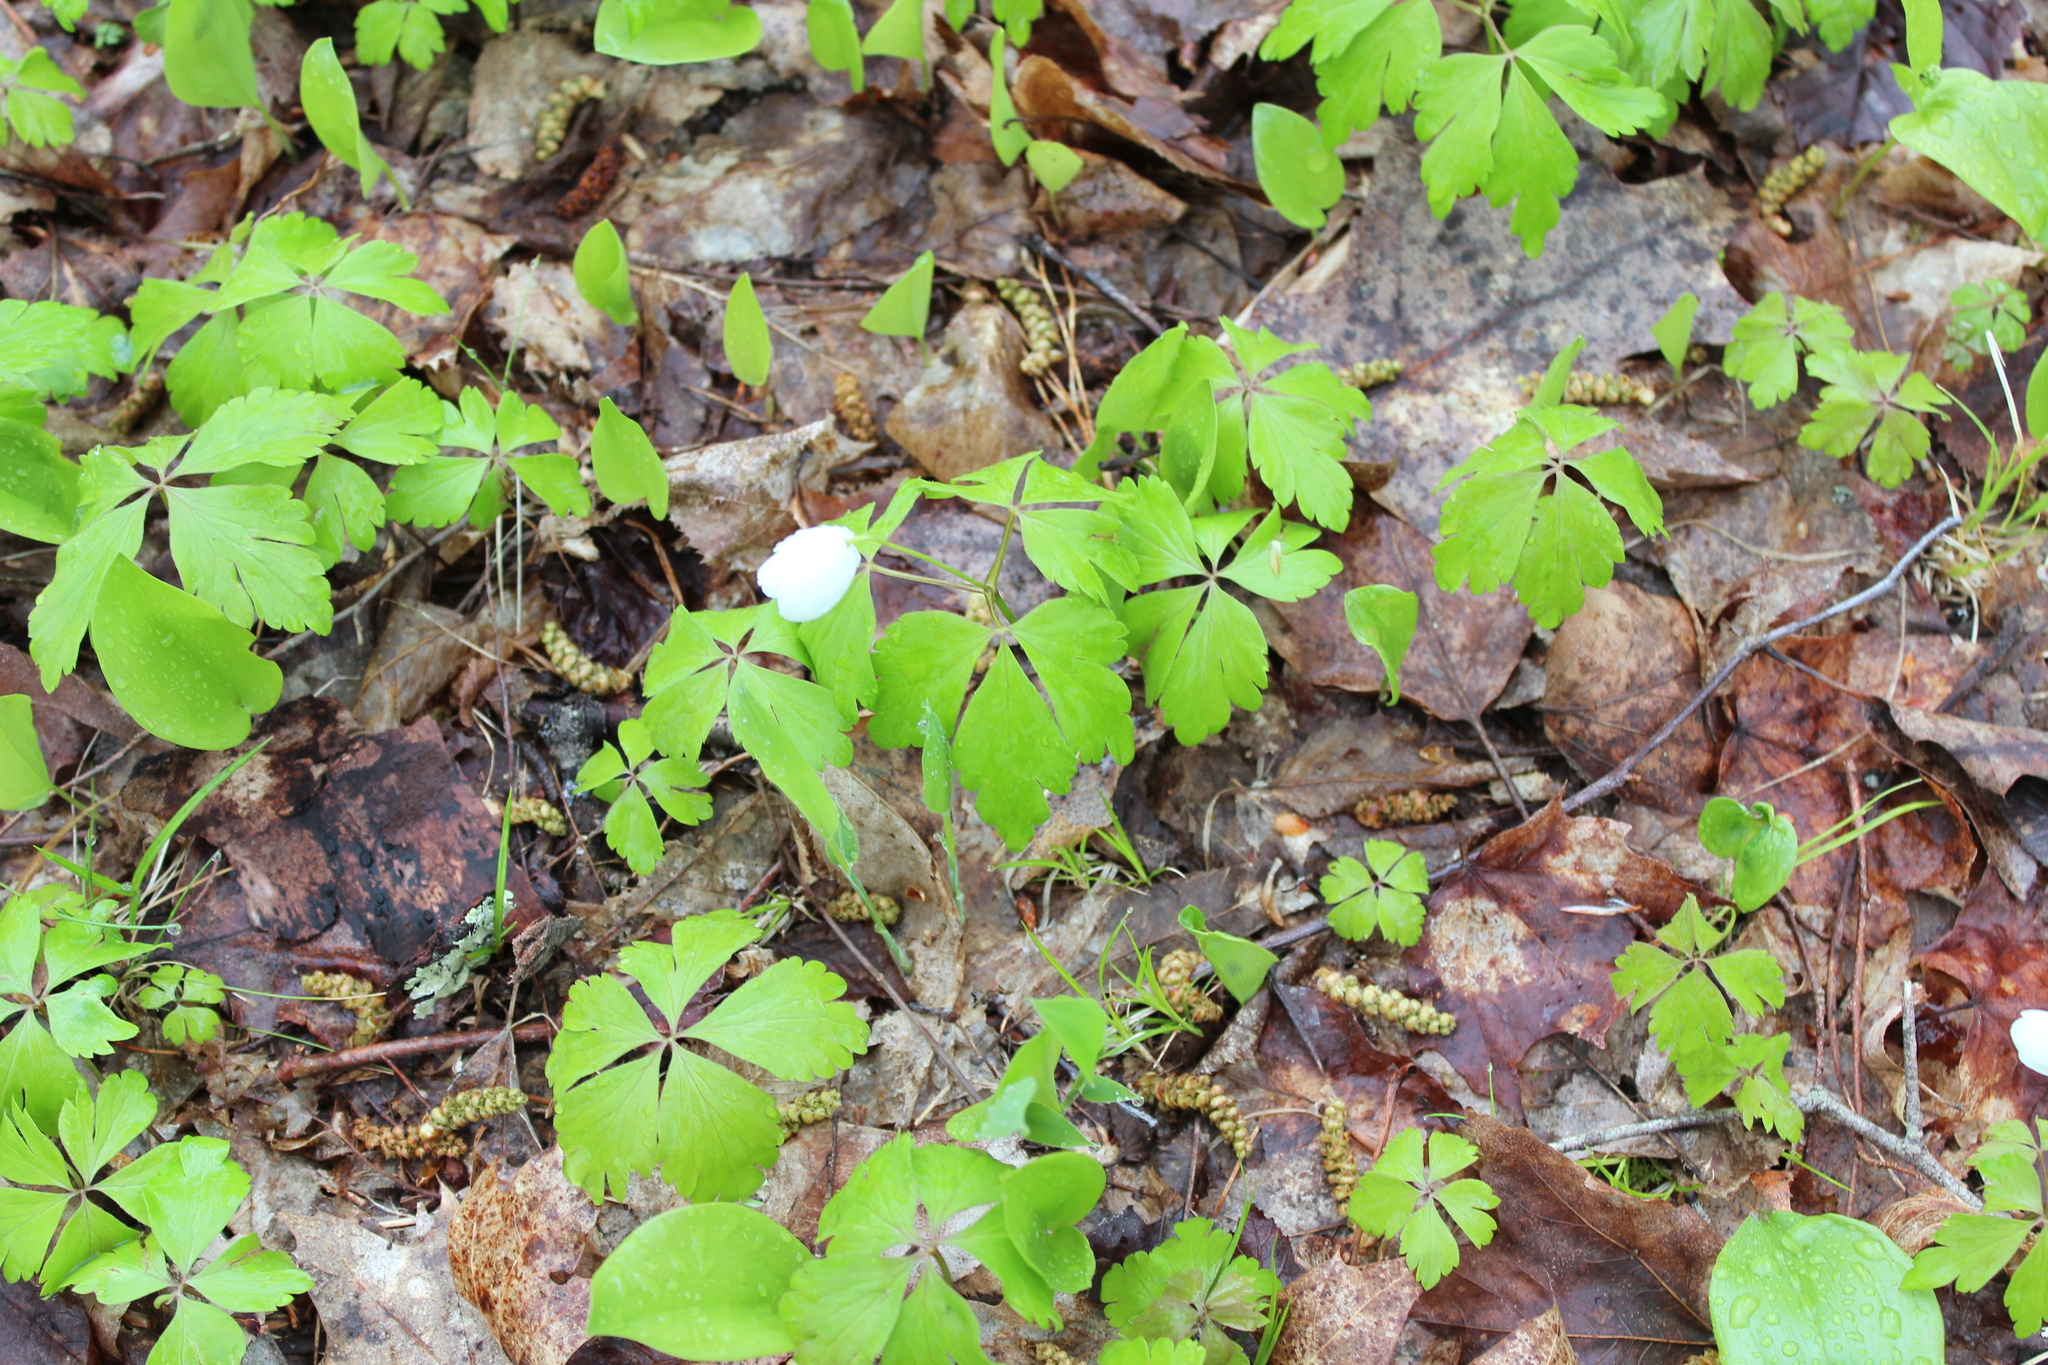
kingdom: Plantae
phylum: Tracheophyta
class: Magnoliopsida
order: Ranunculales
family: Ranunculaceae
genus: Anemone
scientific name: Anemone quinquefolia
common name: Wood anemone
